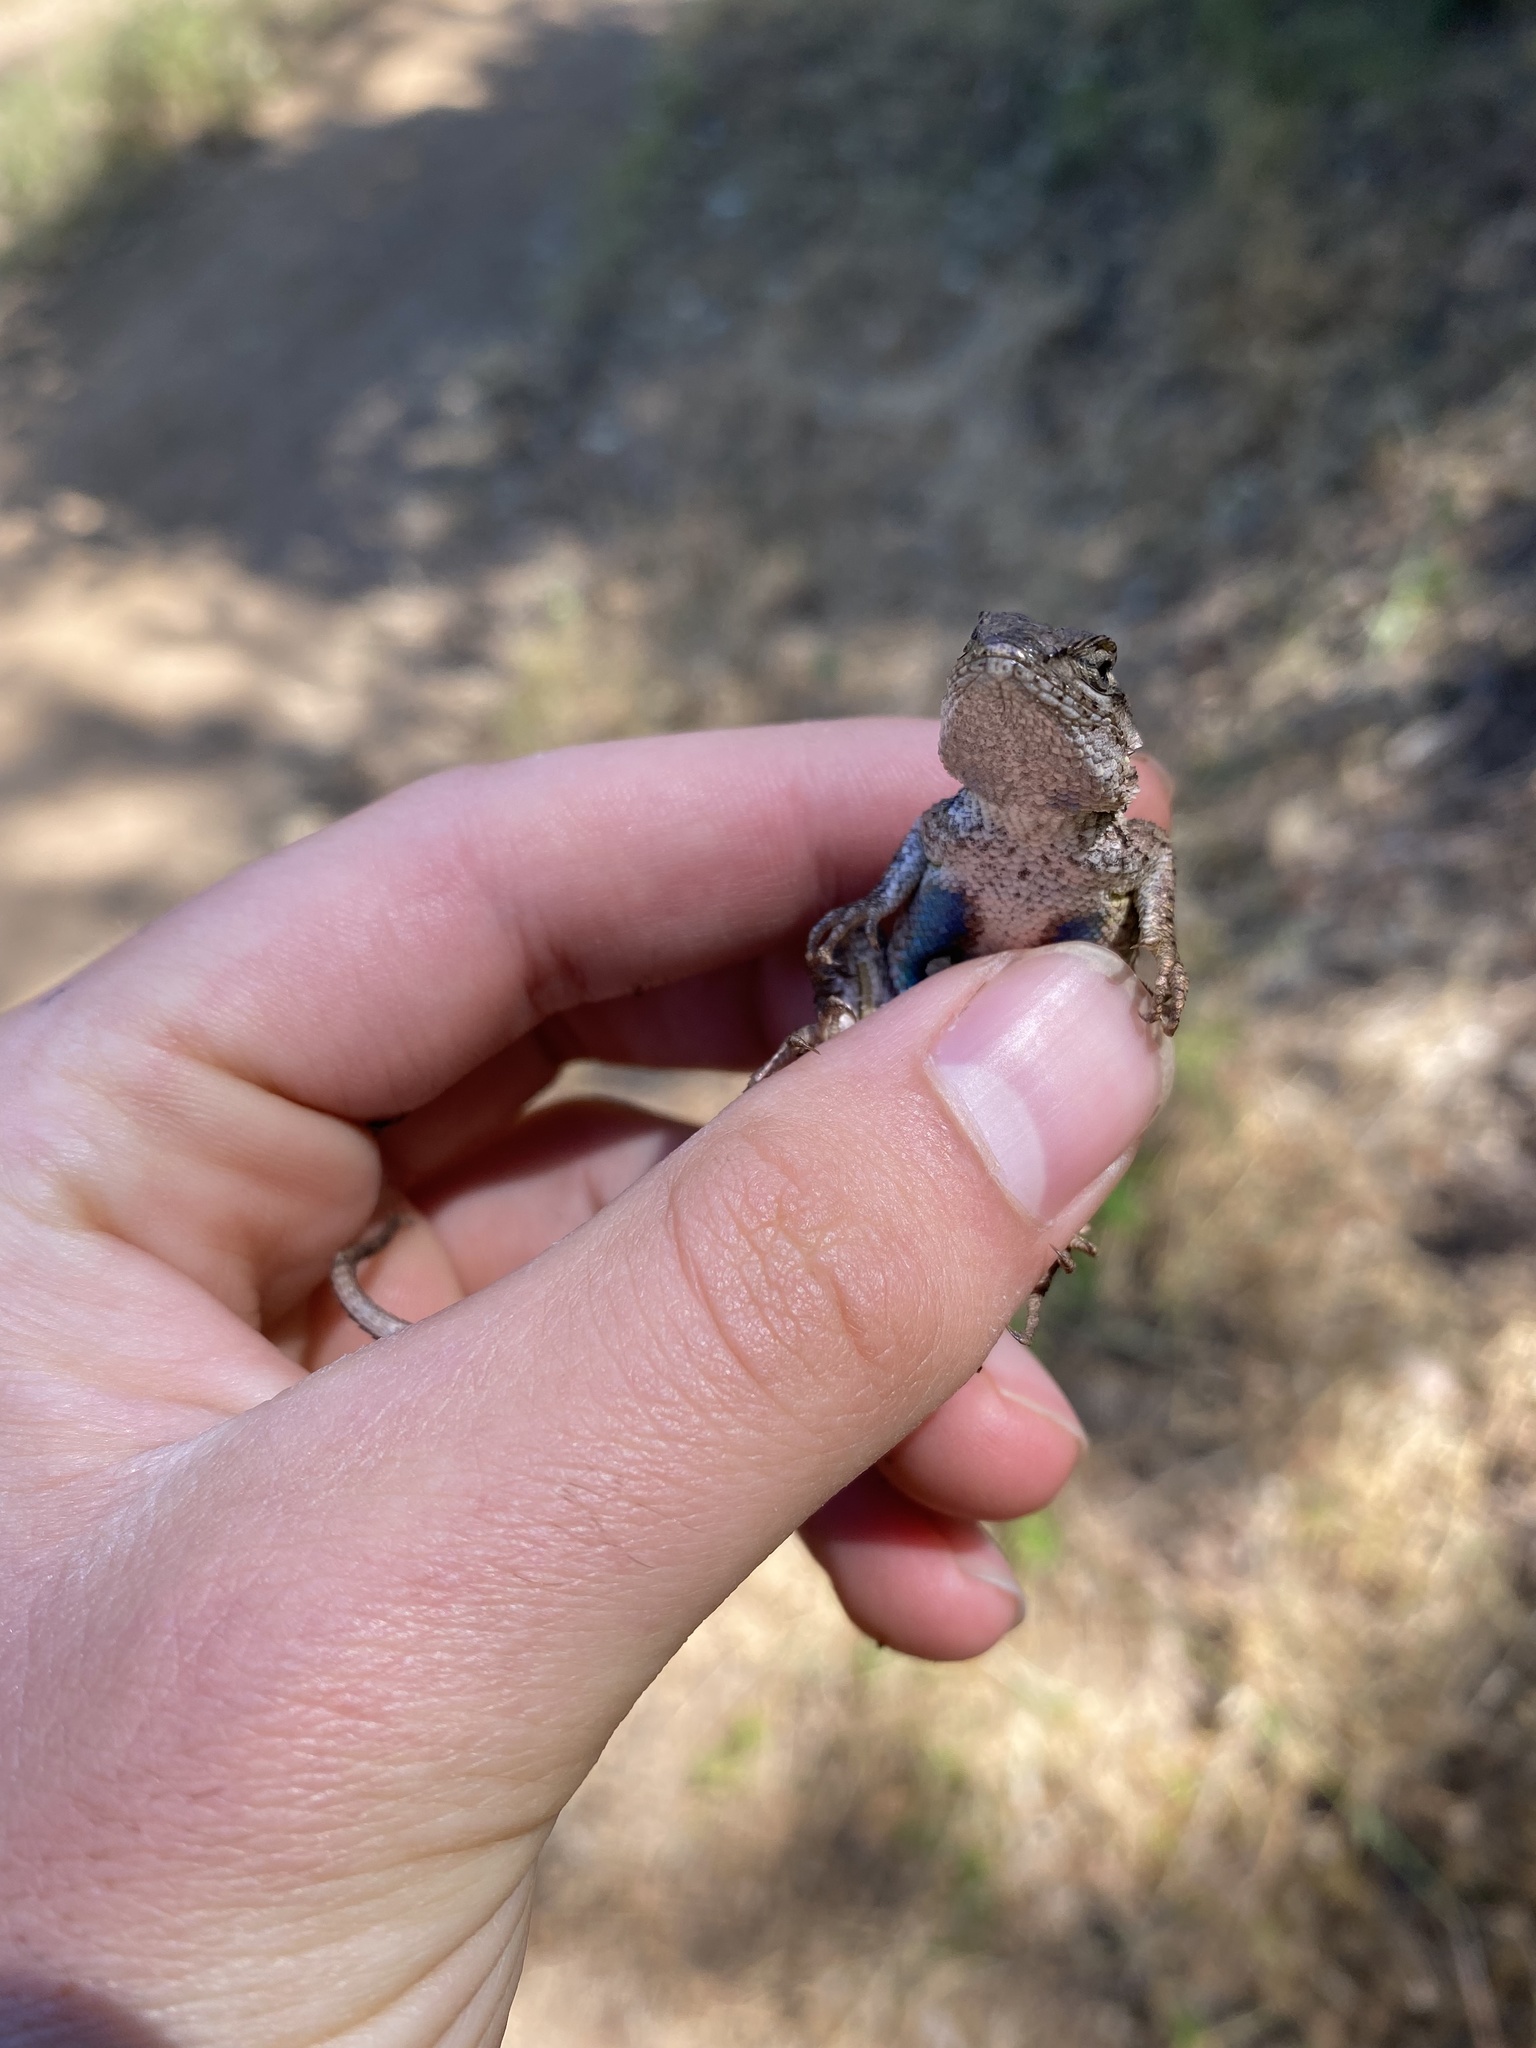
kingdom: Animalia
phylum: Chordata
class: Squamata
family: Phrynosomatidae
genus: Sceloporus
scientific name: Sceloporus occidentalis
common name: Western fence lizard
